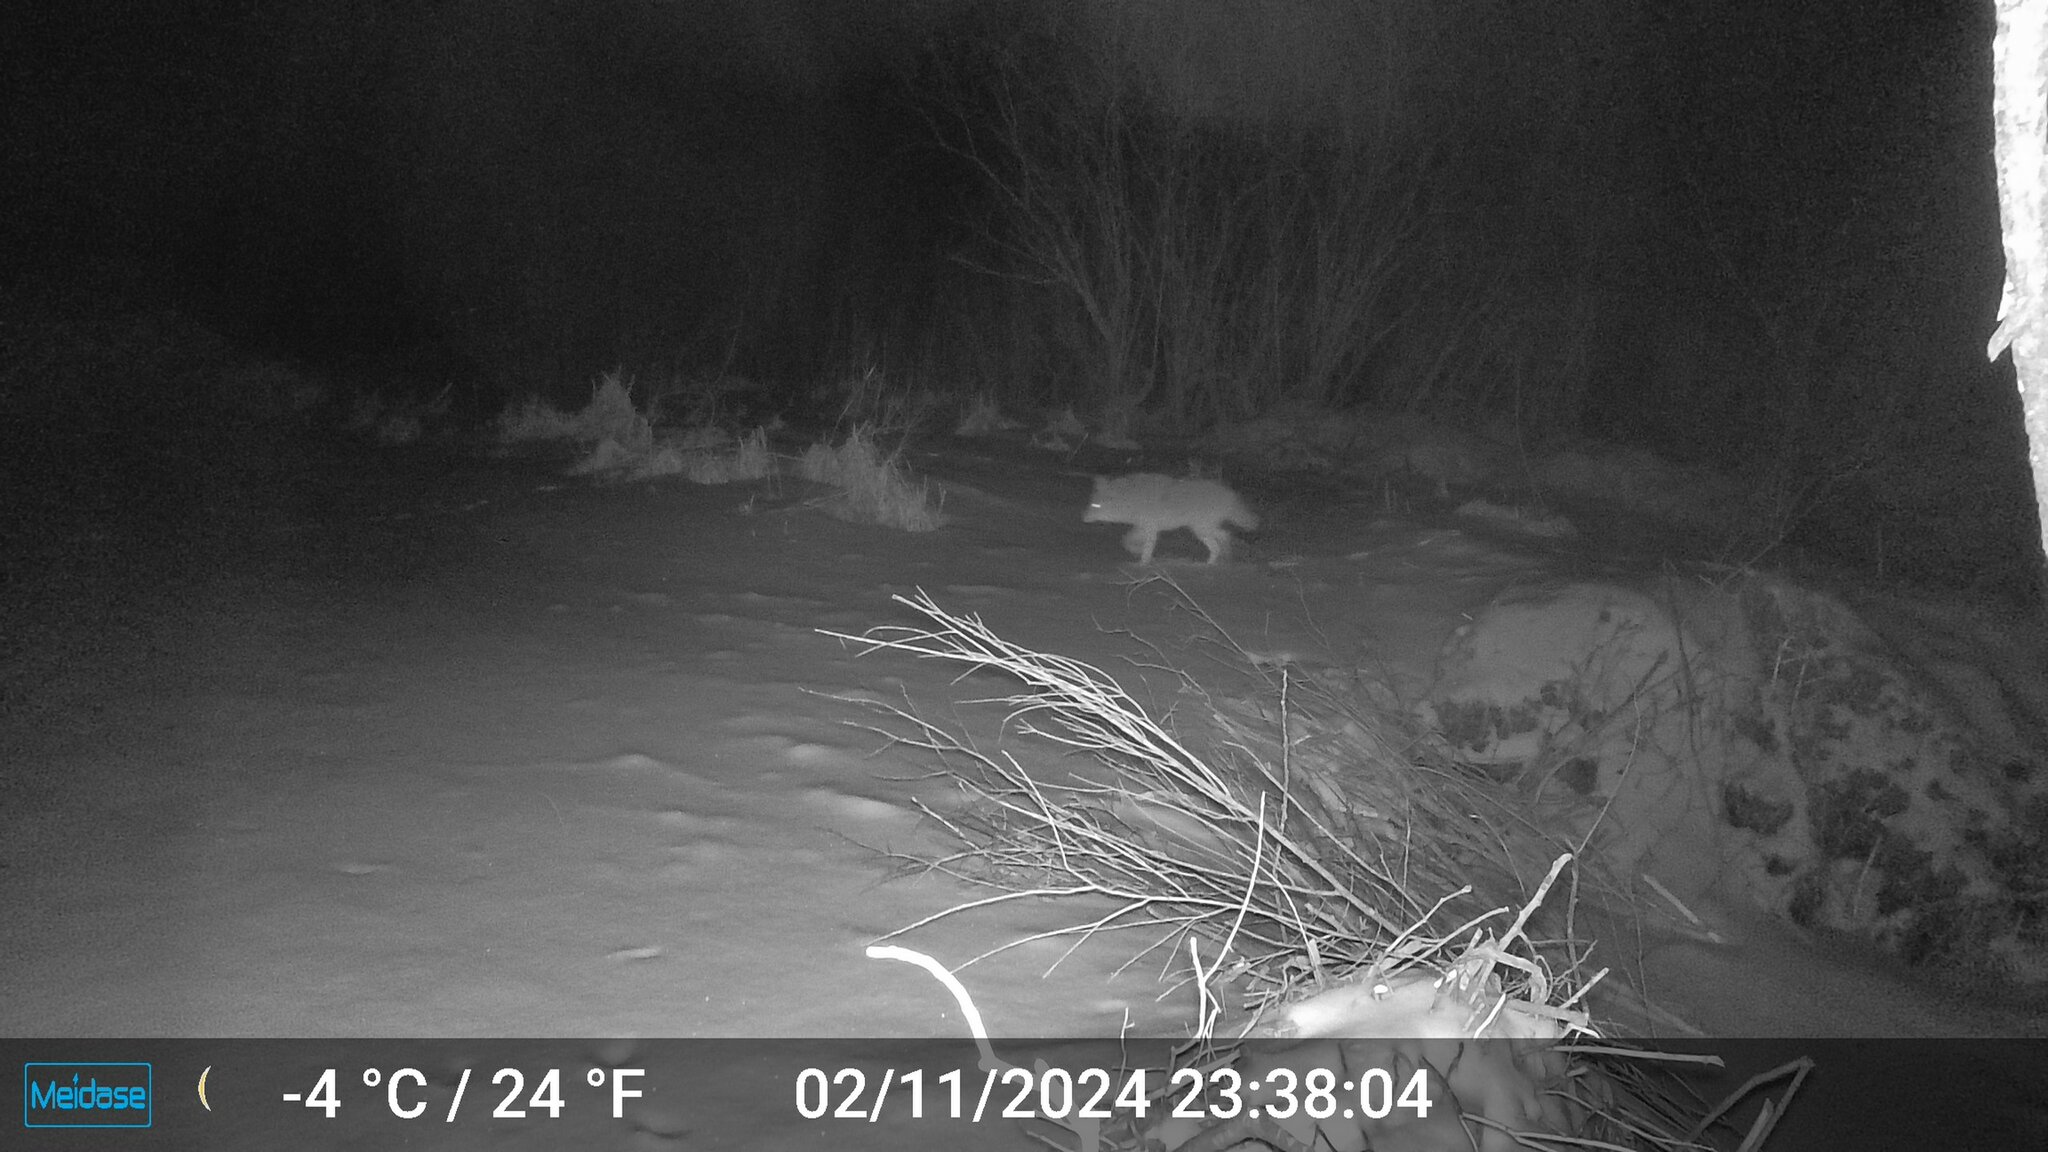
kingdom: Animalia
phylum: Chordata
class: Mammalia
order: Carnivora
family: Canidae
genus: Canis
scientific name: Canis latrans
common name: Coyote
